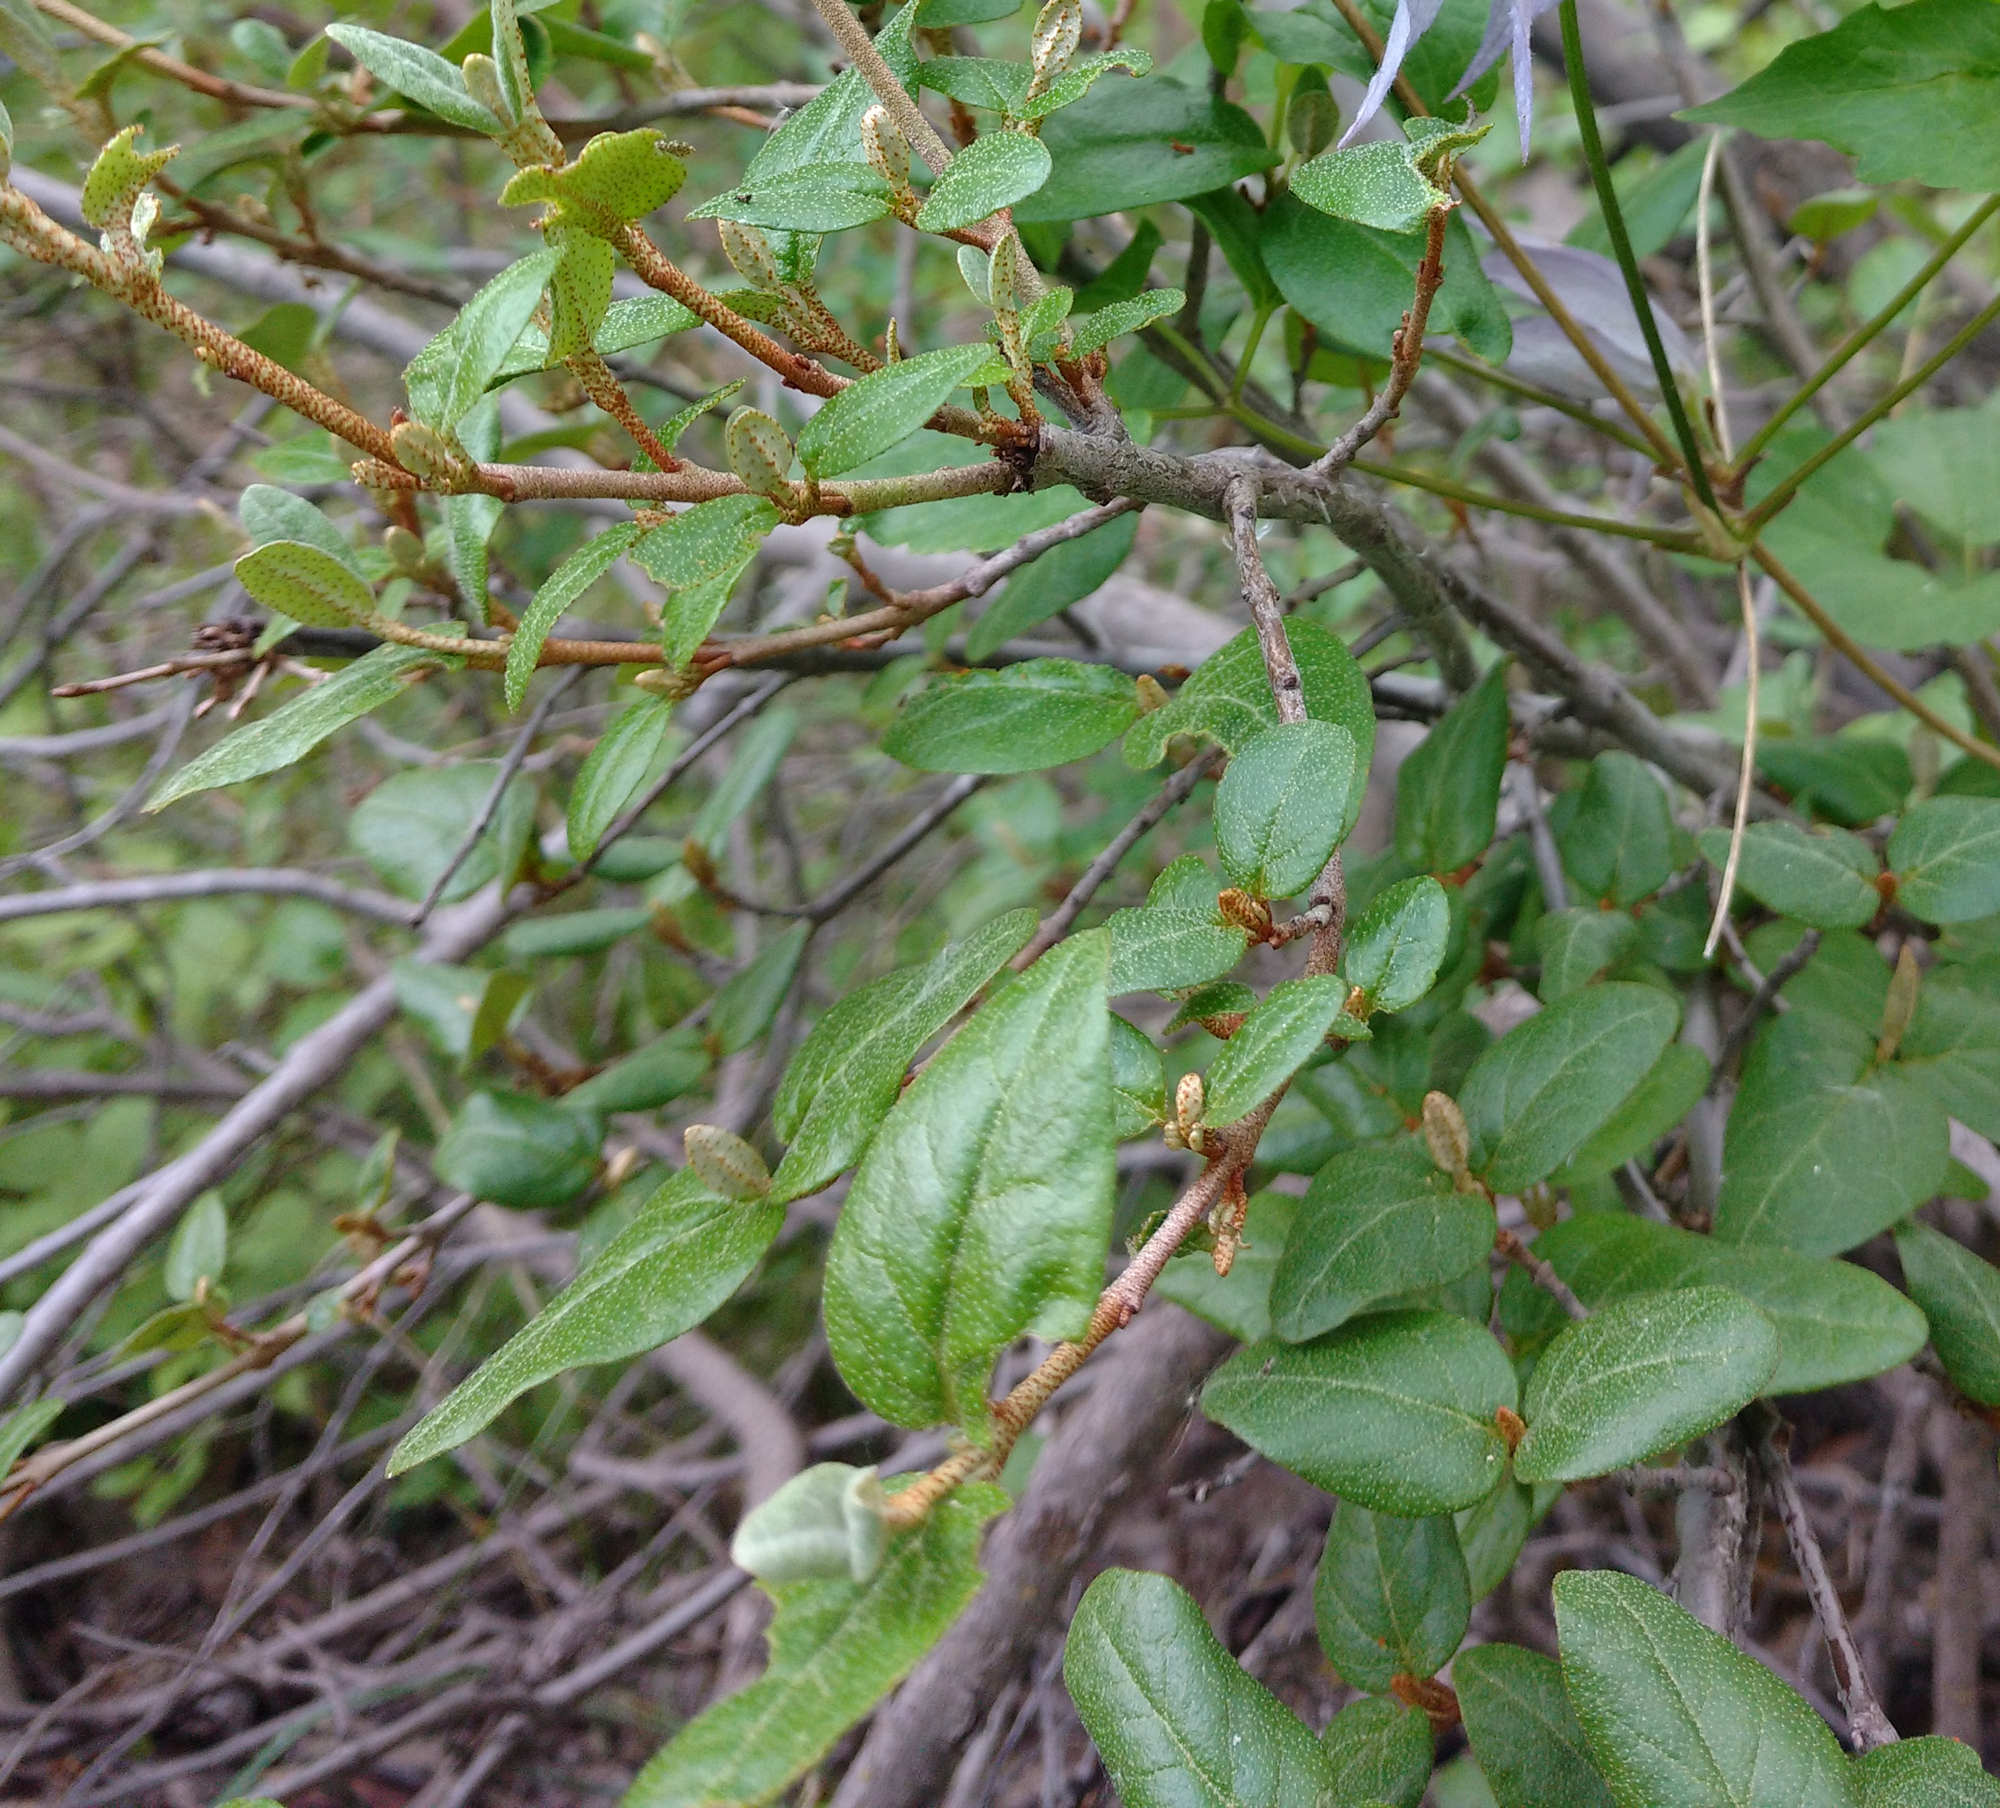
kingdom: Plantae
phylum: Tracheophyta
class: Magnoliopsida
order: Rosales
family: Elaeagnaceae
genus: Shepherdia
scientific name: Shepherdia canadensis
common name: Soapberry
